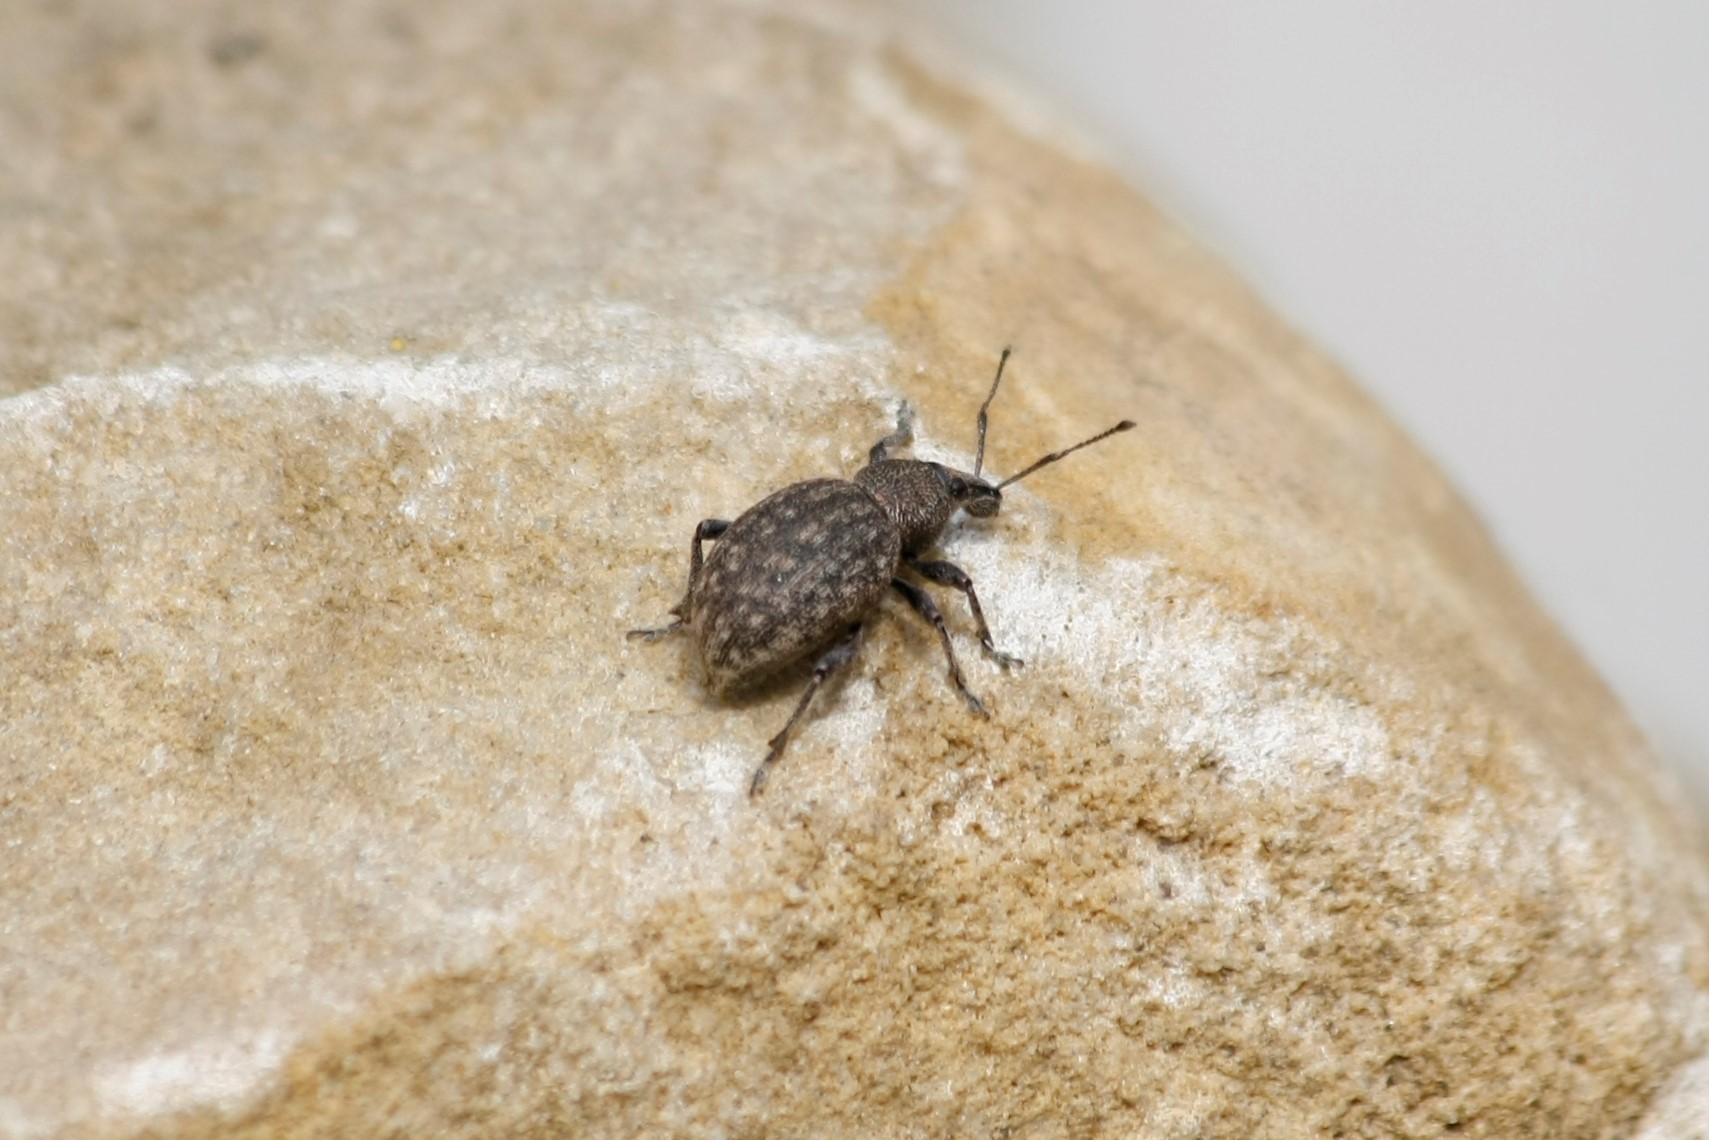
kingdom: Animalia
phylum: Arthropoda
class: Insecta
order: Coleoptera
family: Curculionidae
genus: Otiorhynchus
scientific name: Otiorhynchus ligustici
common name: Weevil
